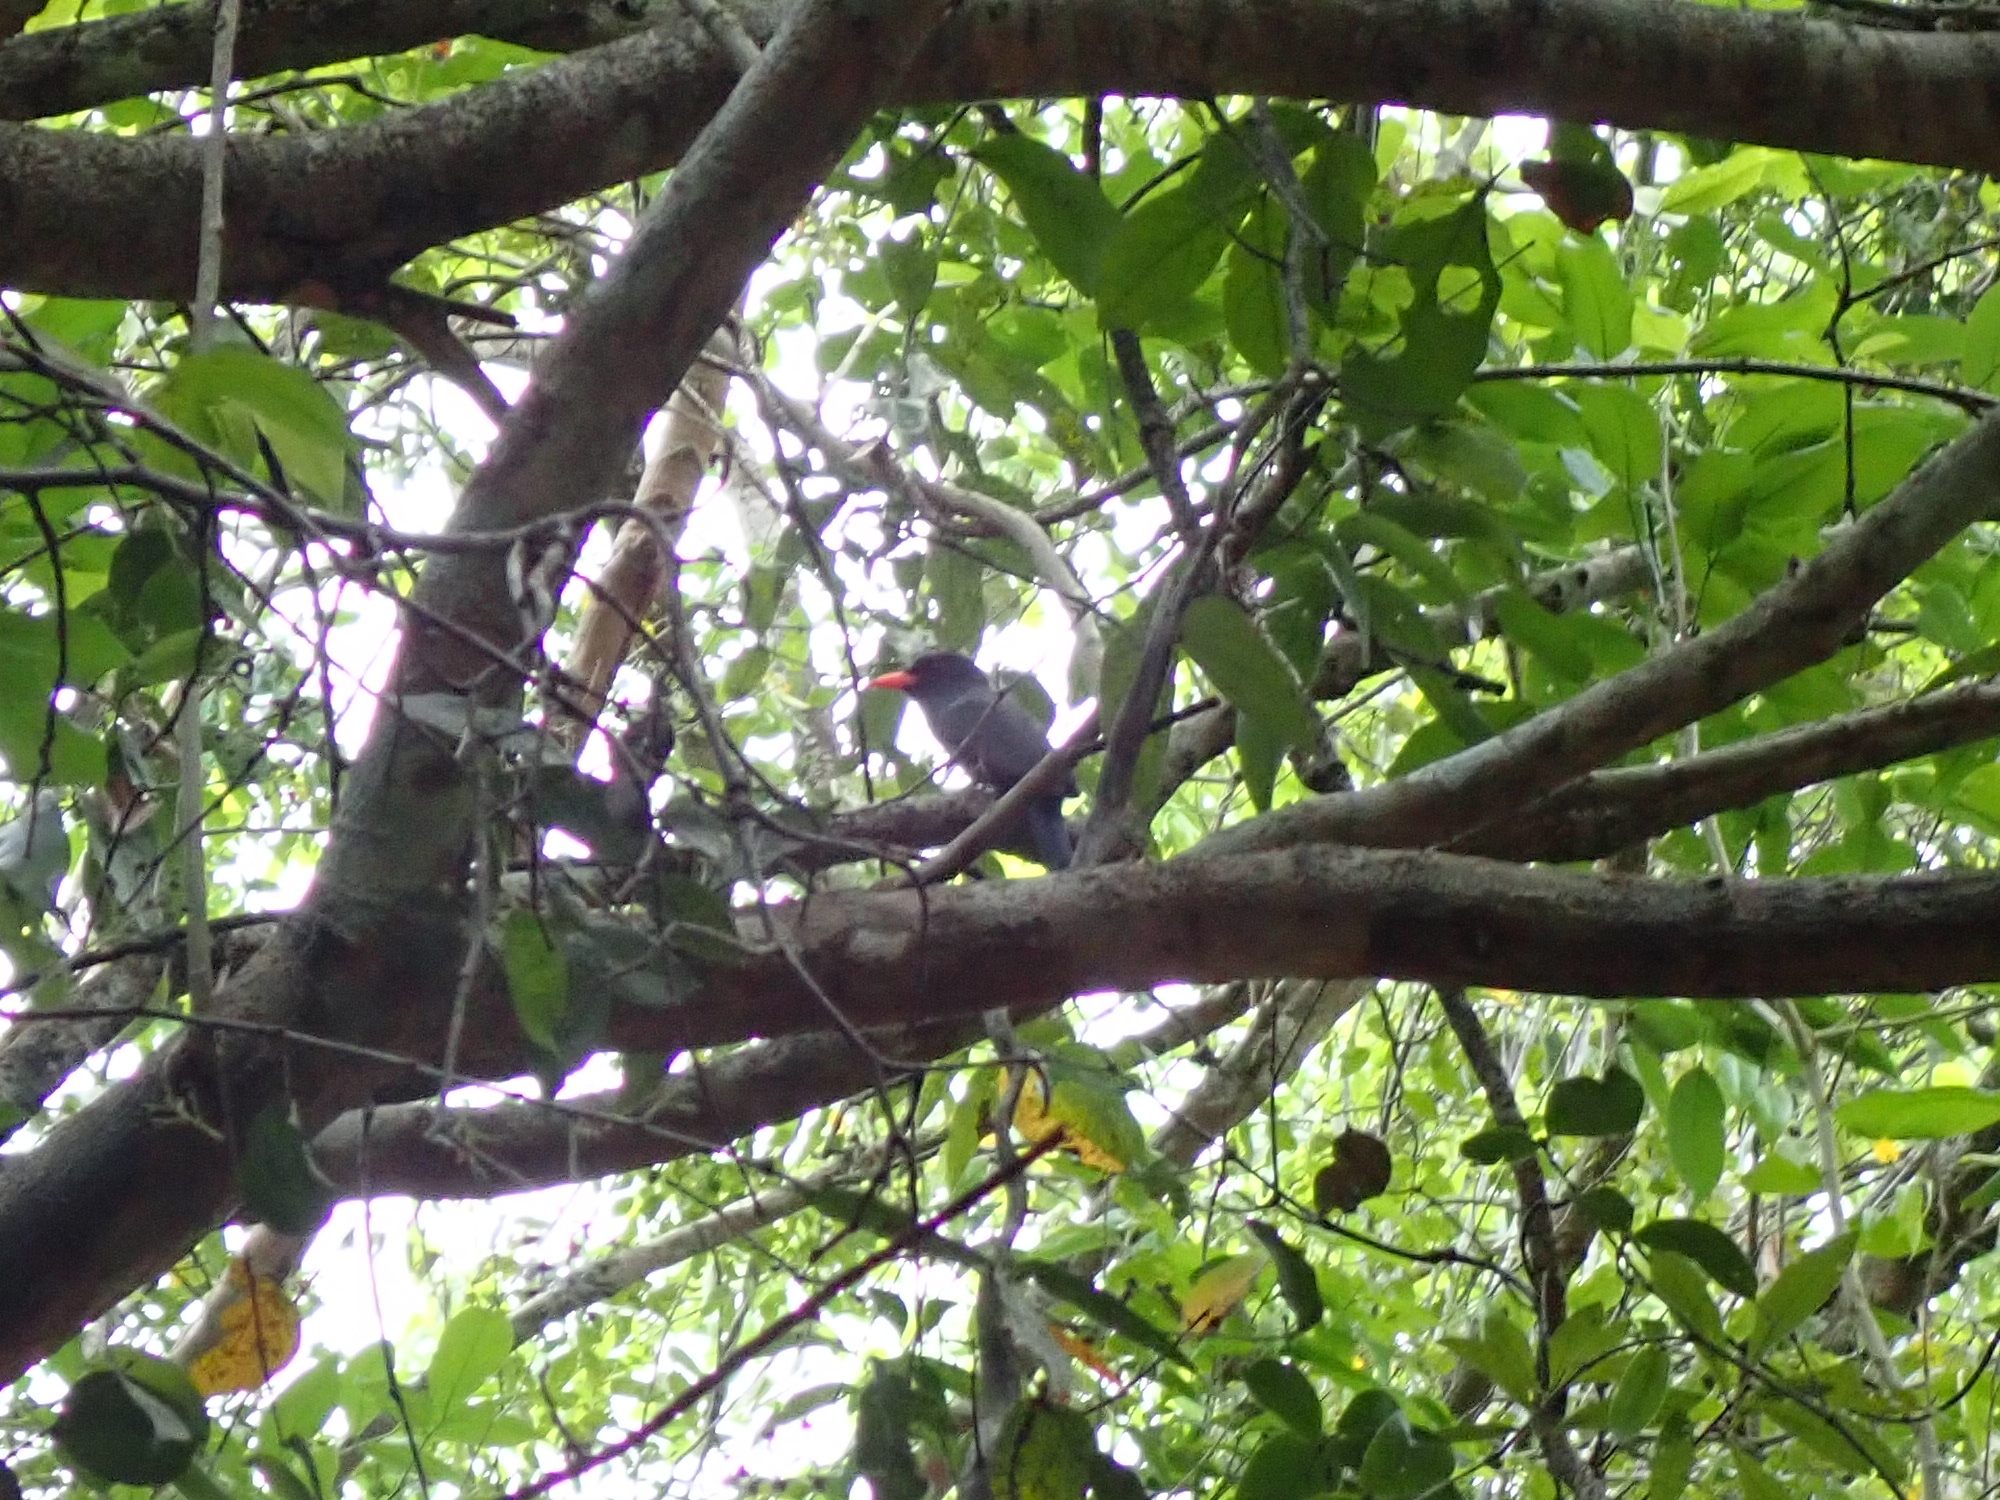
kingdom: Animalia
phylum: Chordata
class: Aves
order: Piciformes
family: Bucconidae
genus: Monasa
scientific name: Monasa nigrifrons
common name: Black-fronted nunbird
